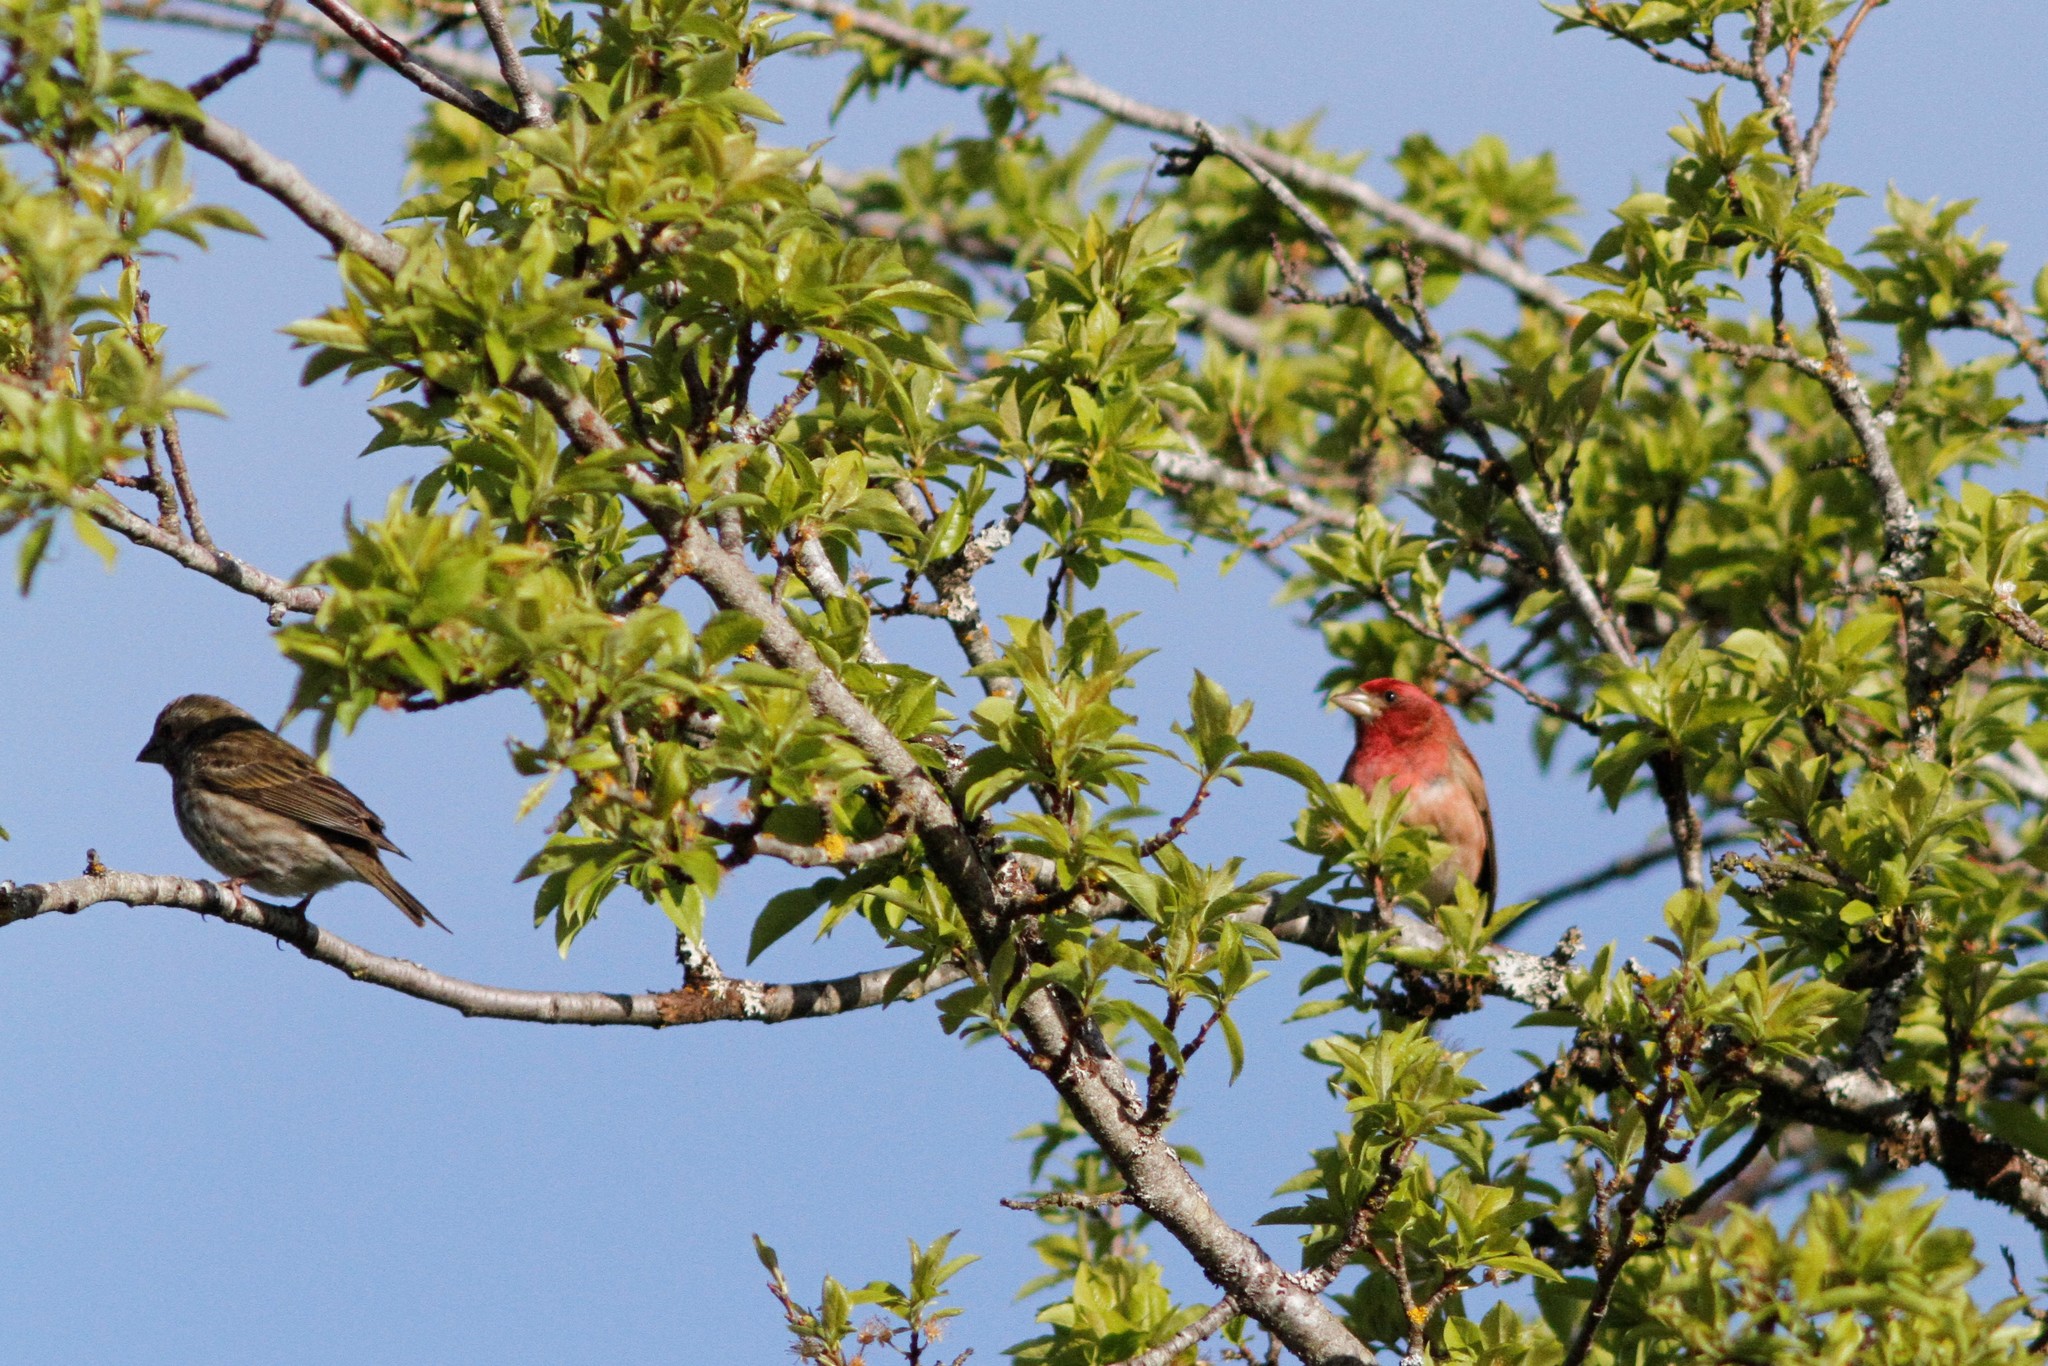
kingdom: Animalia
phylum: Chordata
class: Aves
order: Passeriformes
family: Fringillidae
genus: Haemorhous
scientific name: Haemorhous purpureus
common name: Purple finch
